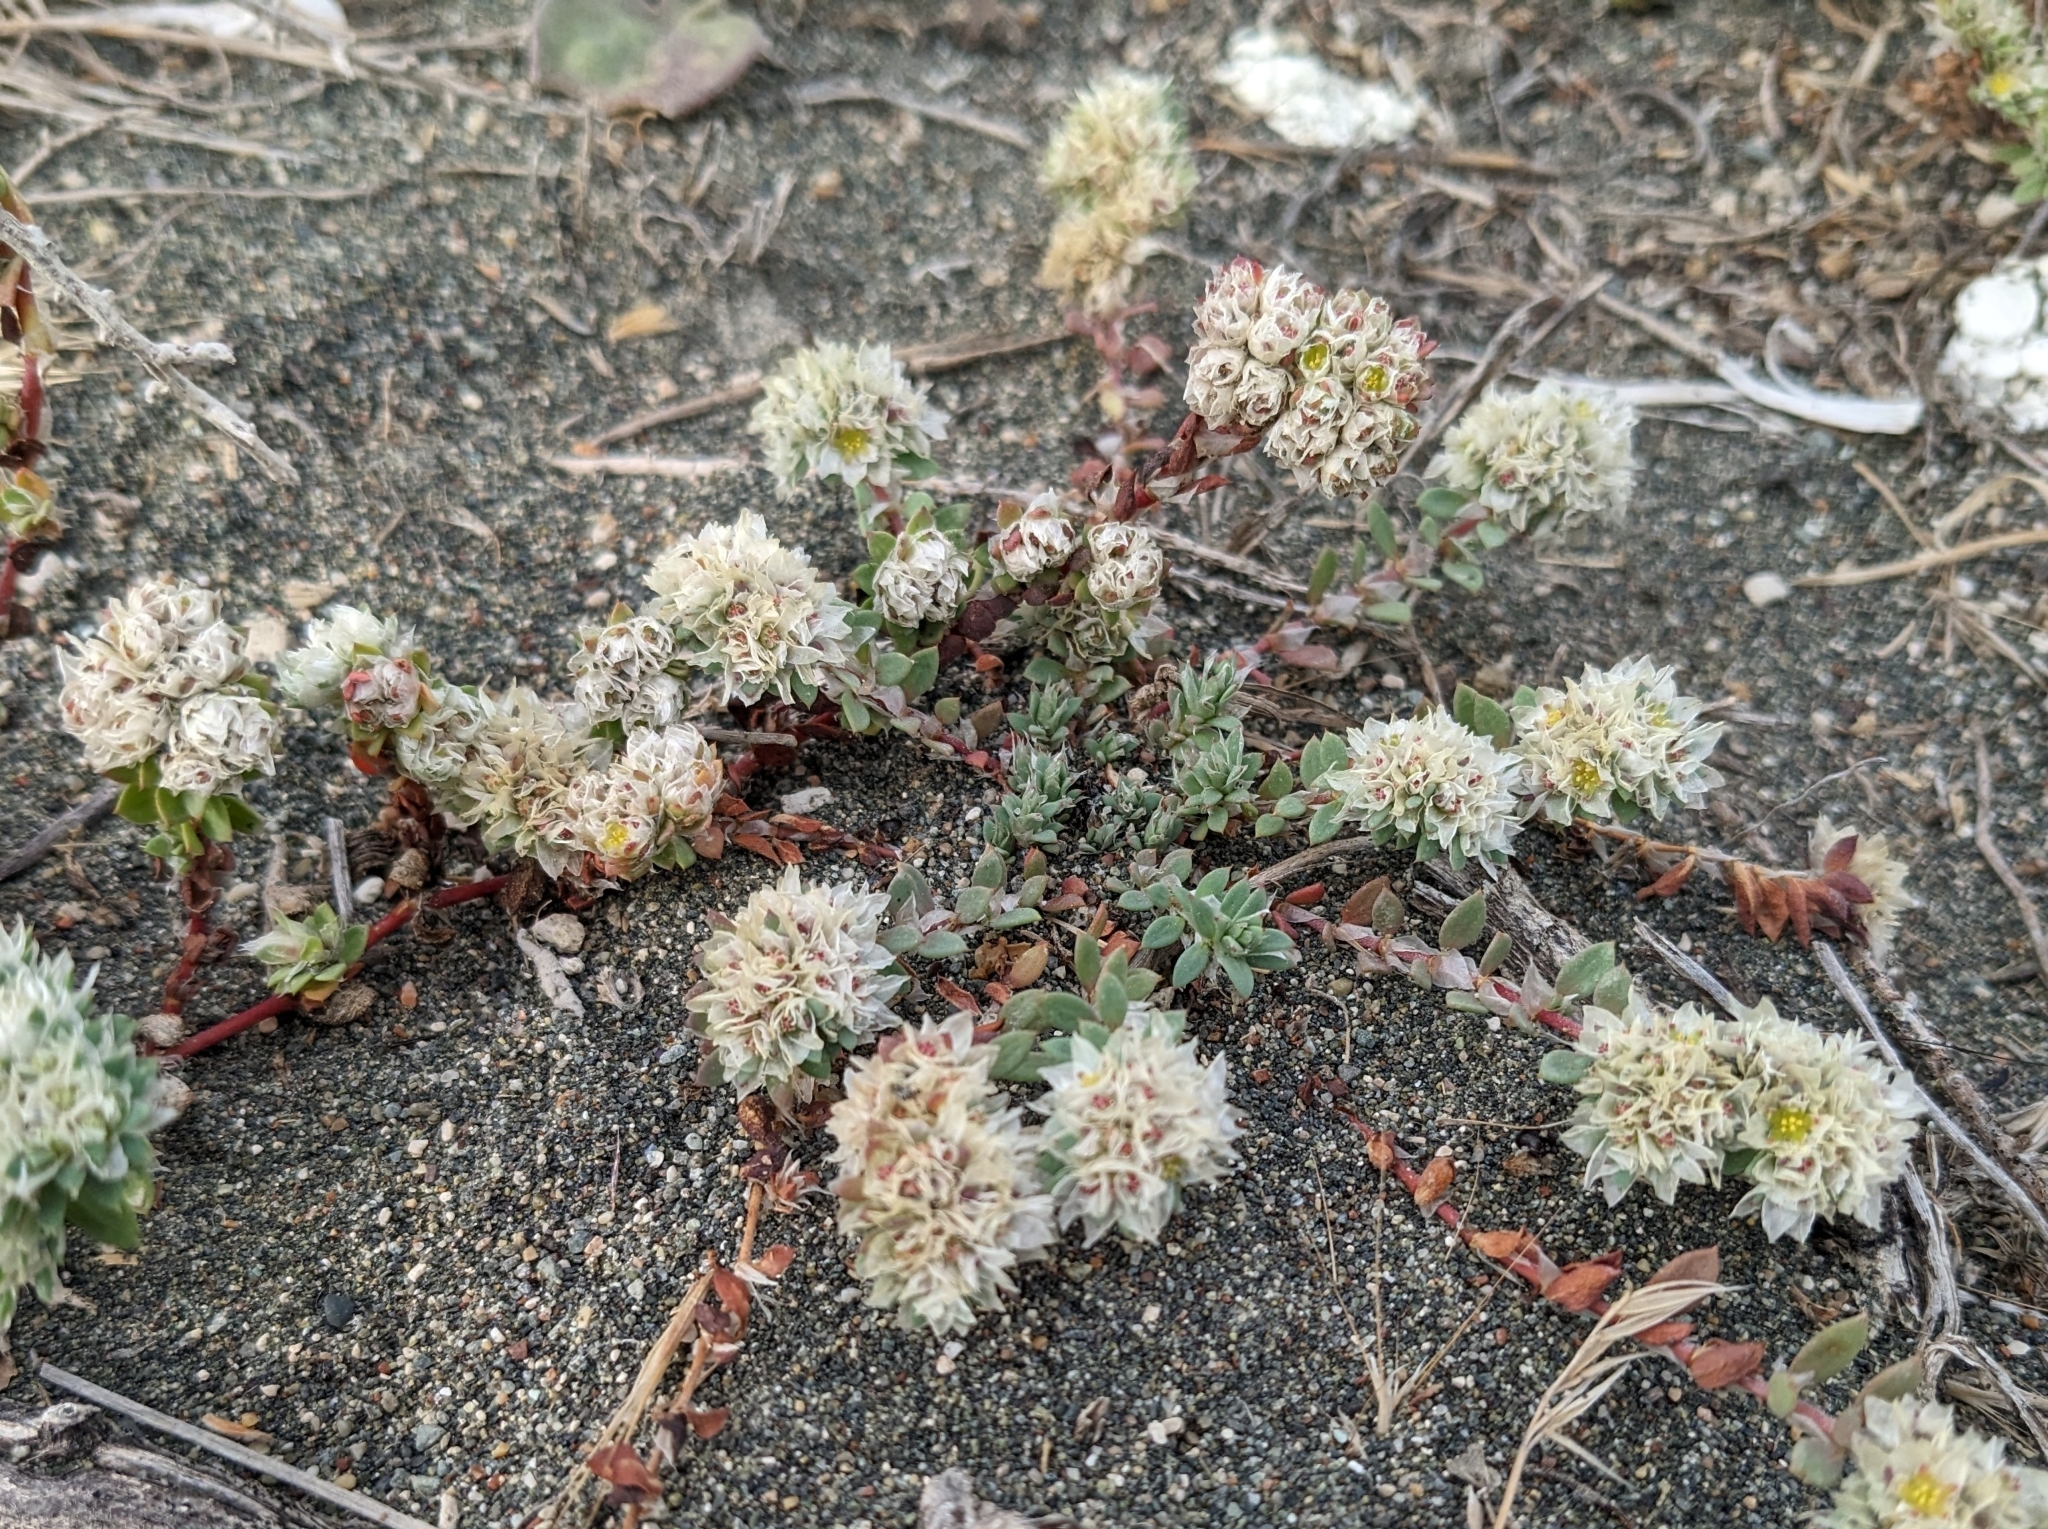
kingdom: Plantae
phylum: Tracheophyta
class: Magnoliopsida
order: Caryophyllales
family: Caryophyllaceae
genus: Paronychia
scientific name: Paronychia argentea
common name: Silver nailroot
